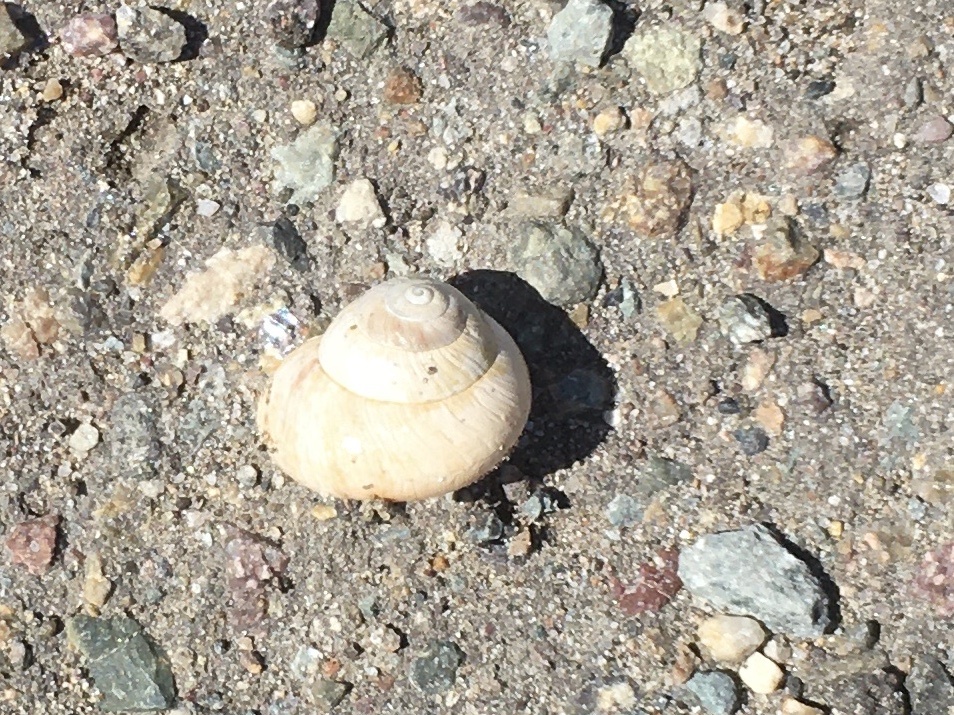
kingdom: Animalia
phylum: Mollusca
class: Gastropoda
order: Stylommatophora
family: Helicidae
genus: Theba
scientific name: Theba pisana
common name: White snail
